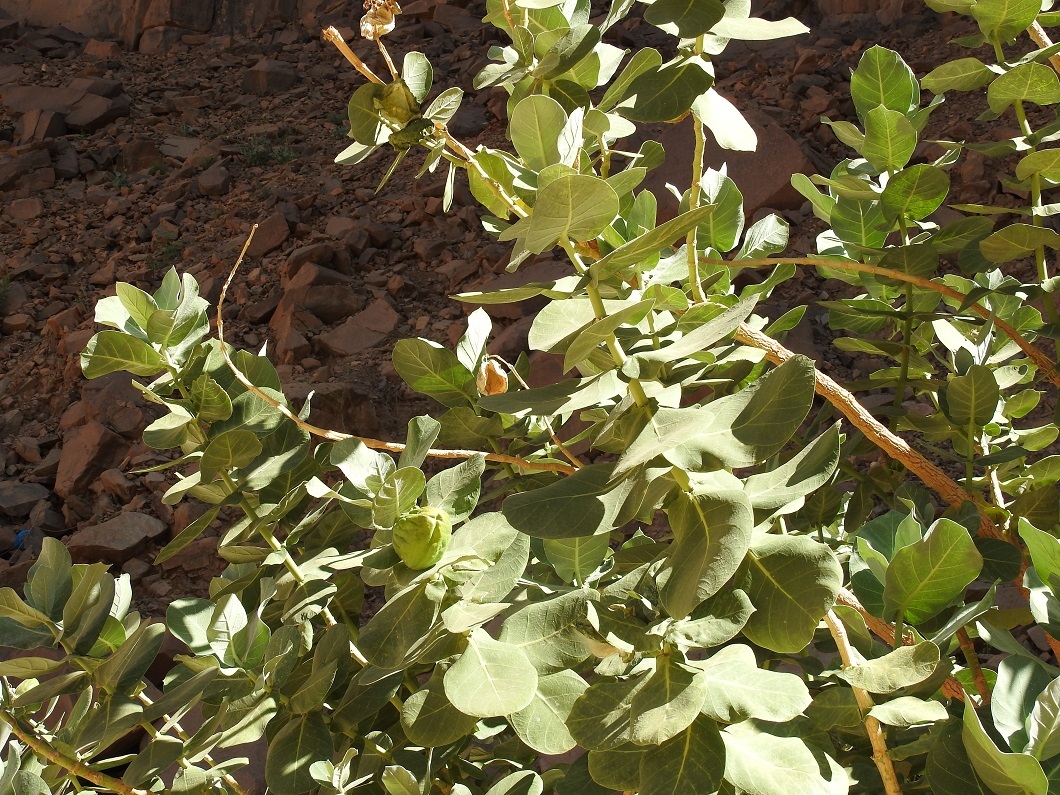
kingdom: Plantae
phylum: Tracheophyta
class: Magnoliopsida
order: Gentianales
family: Apocynaceae
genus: Calotropis
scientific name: Calotropis procera
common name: Roostertree
